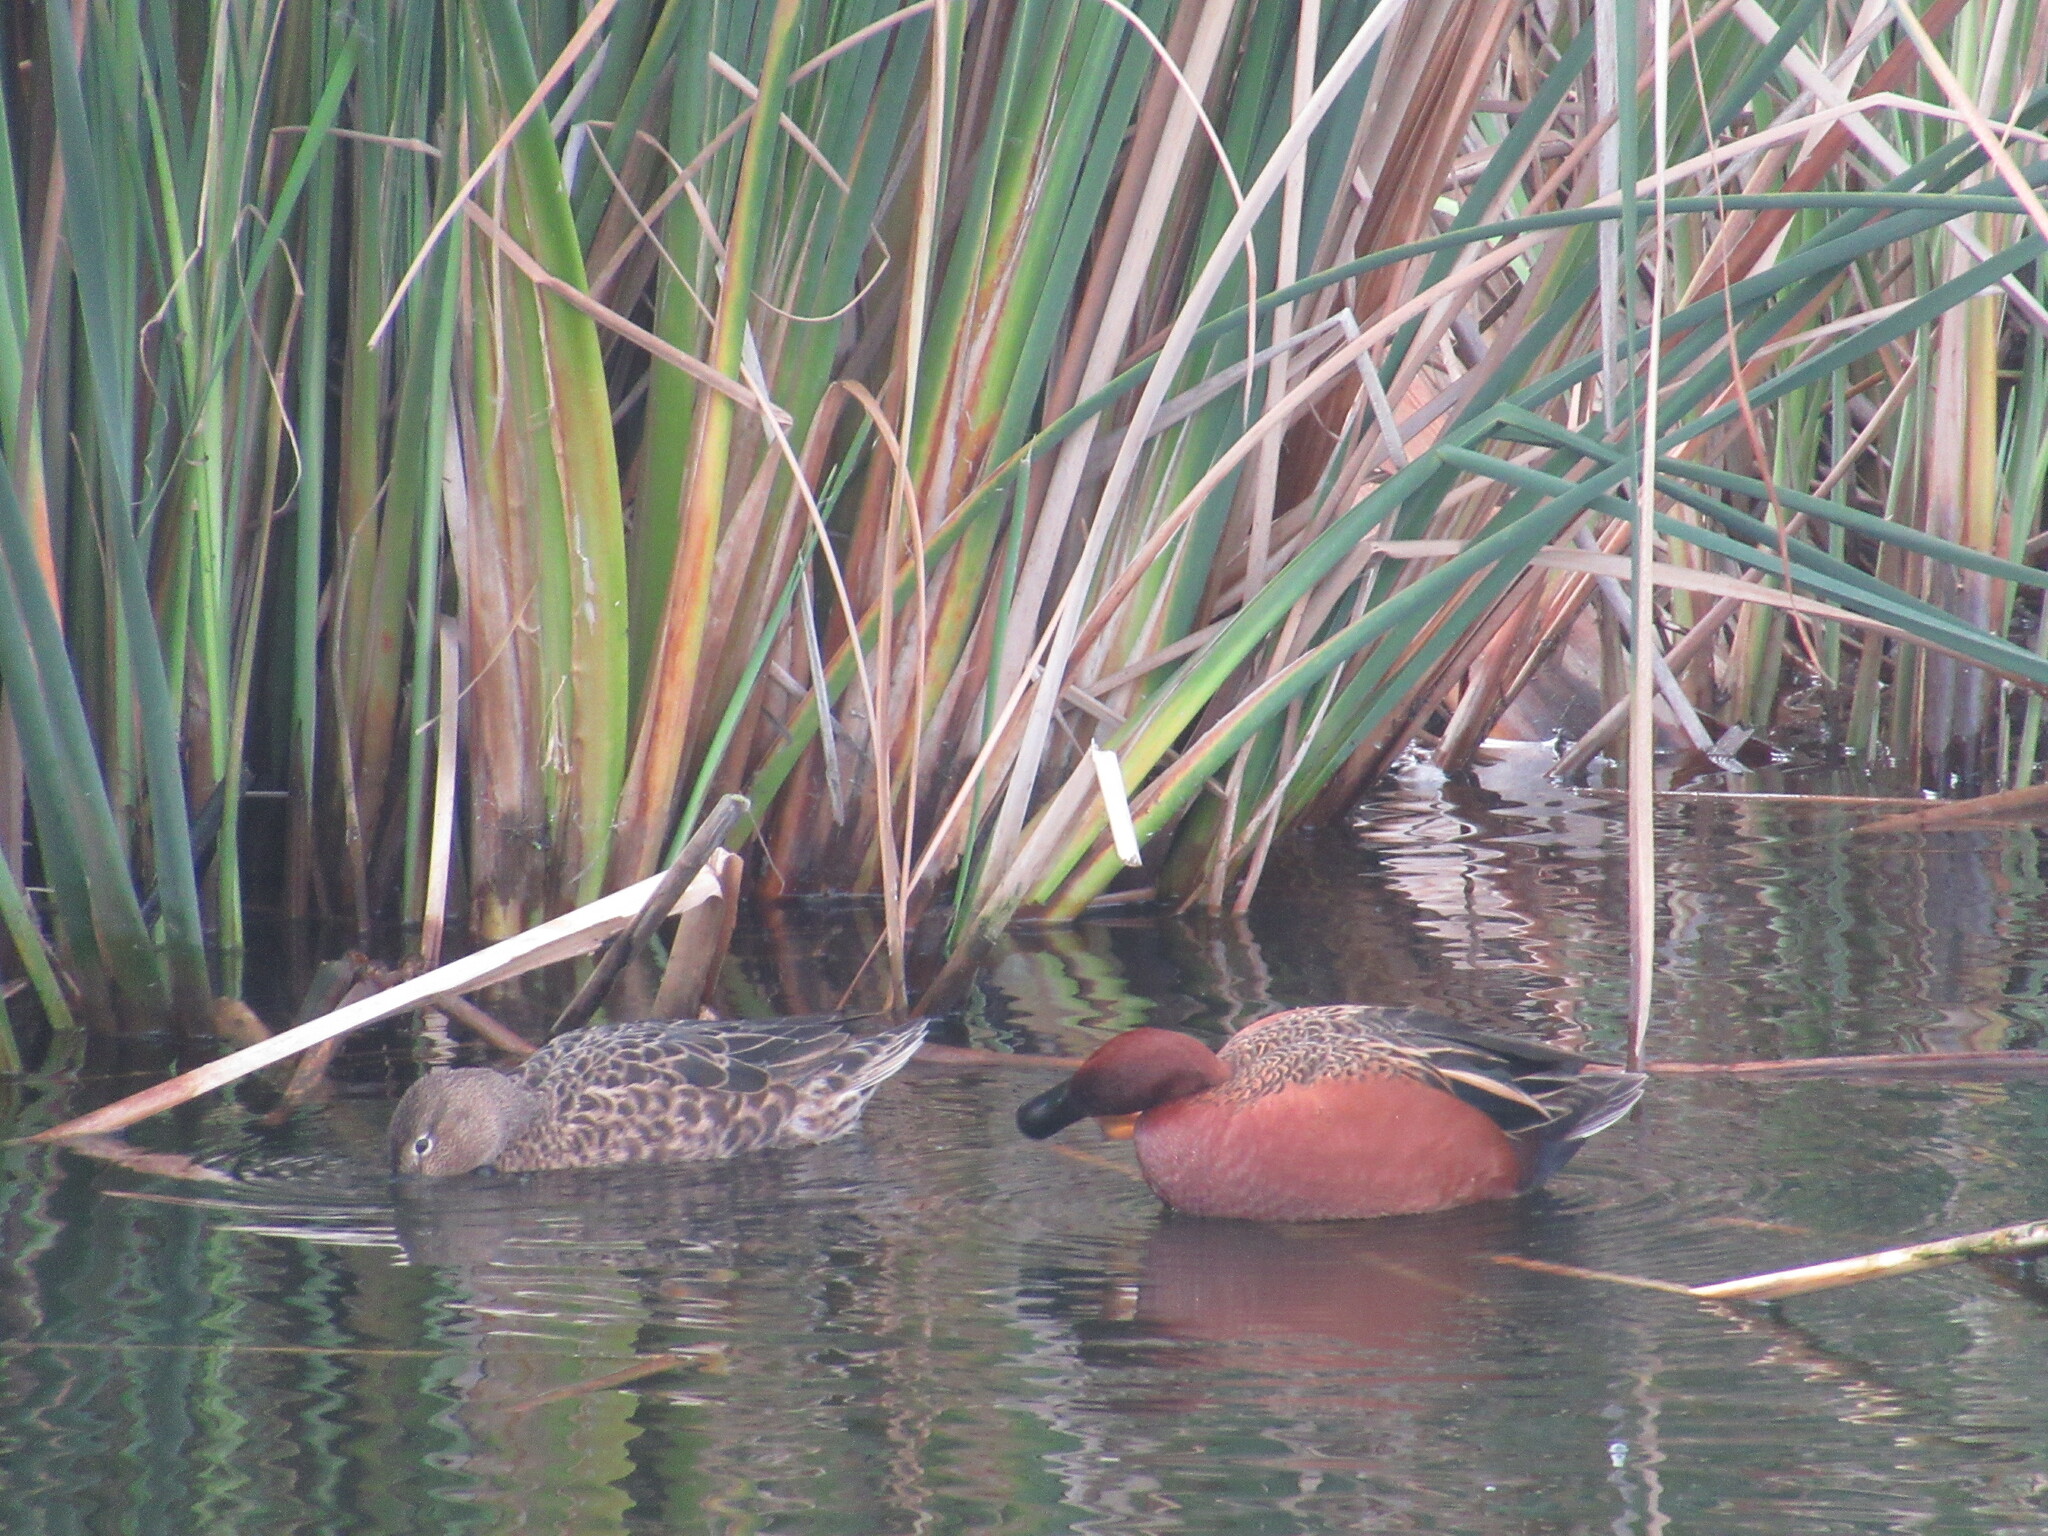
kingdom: Animalia
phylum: Chordata
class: Aves
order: Anseriformes
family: Anatidae
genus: Spatula
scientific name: Spatula cyanoptera
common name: Cinnamon teal
